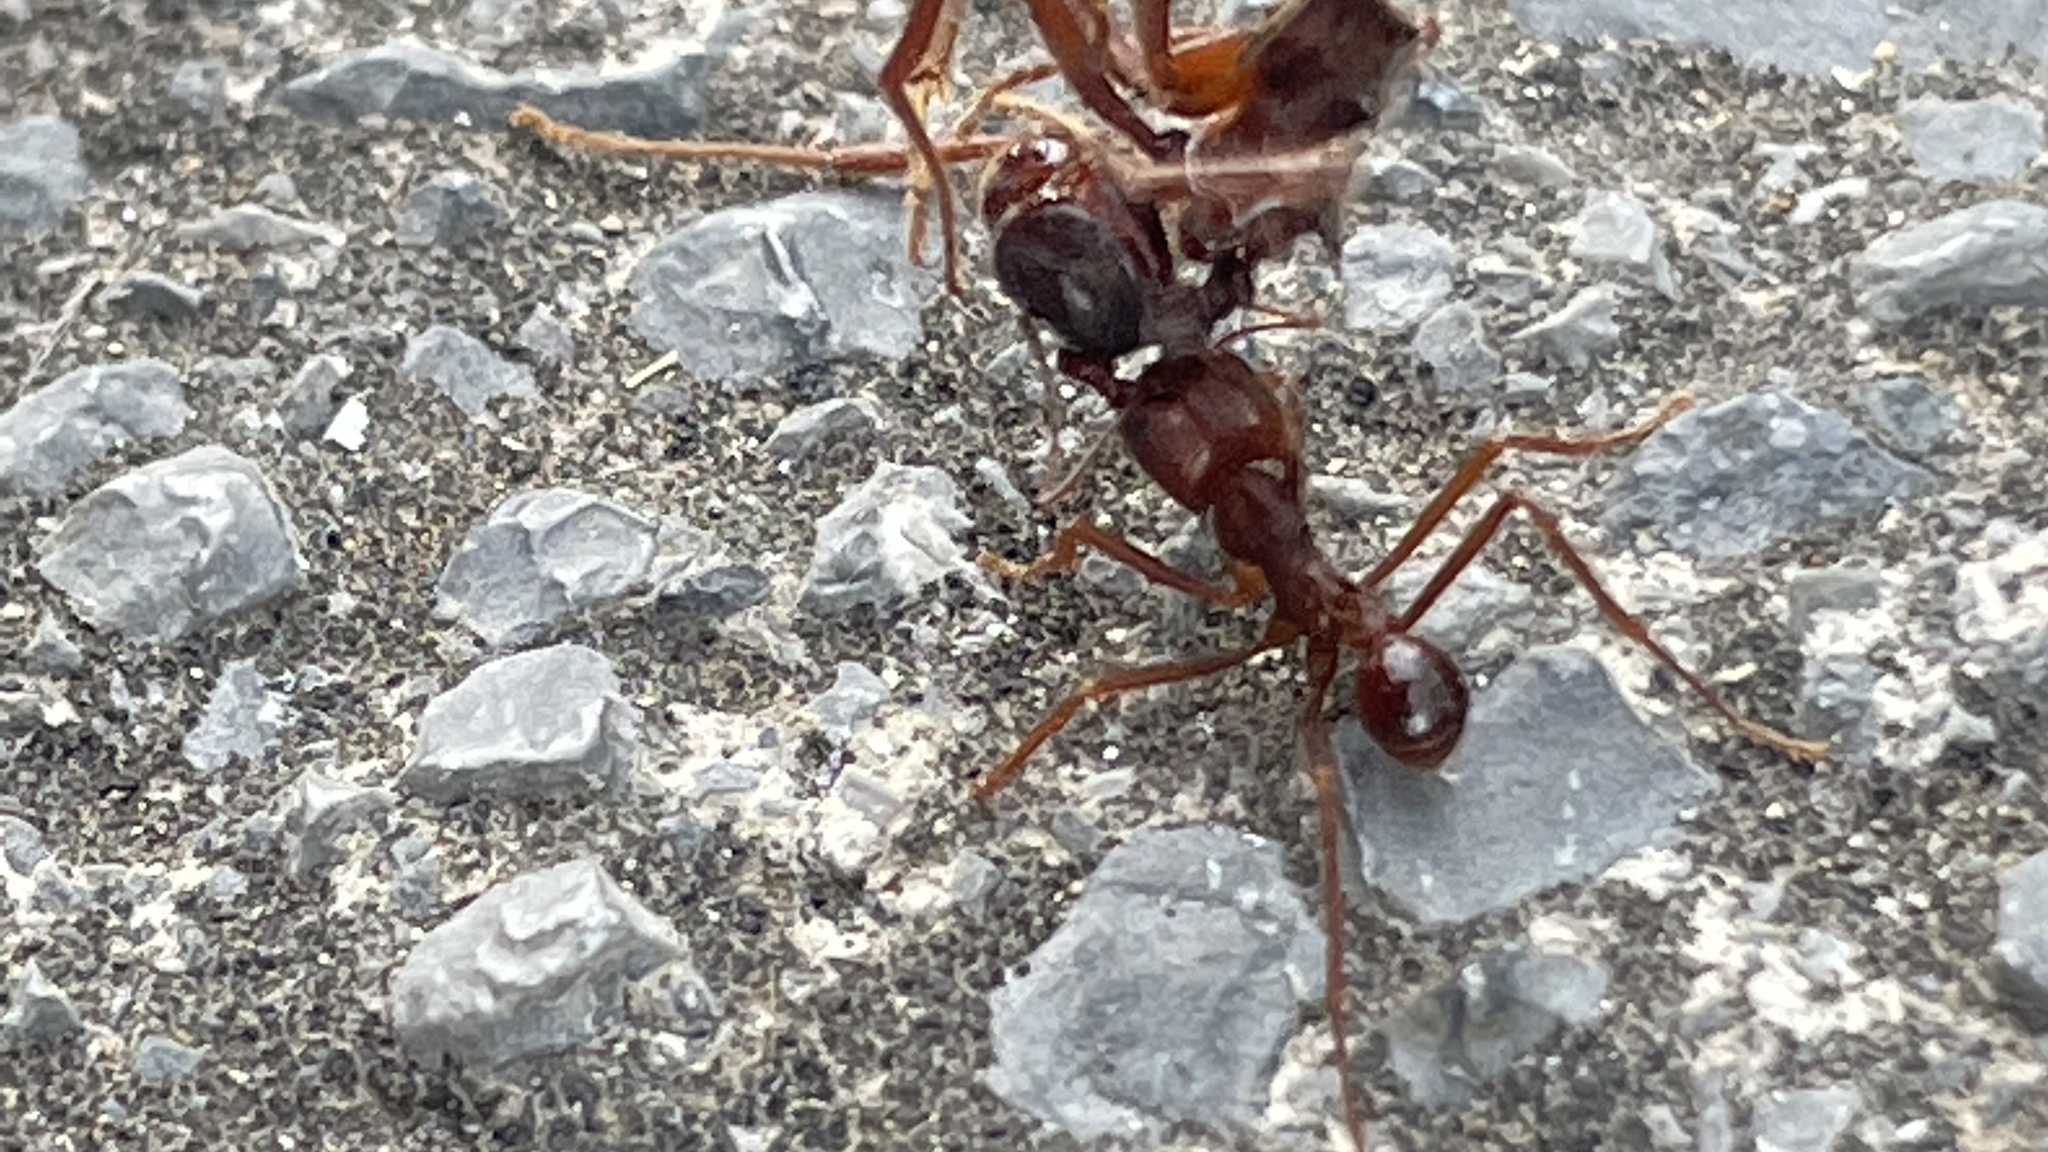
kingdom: Animalia
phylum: Arthropoda
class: Insecta
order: Hymenoptera
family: Formicidae
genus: Atta
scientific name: Atta mexicana
